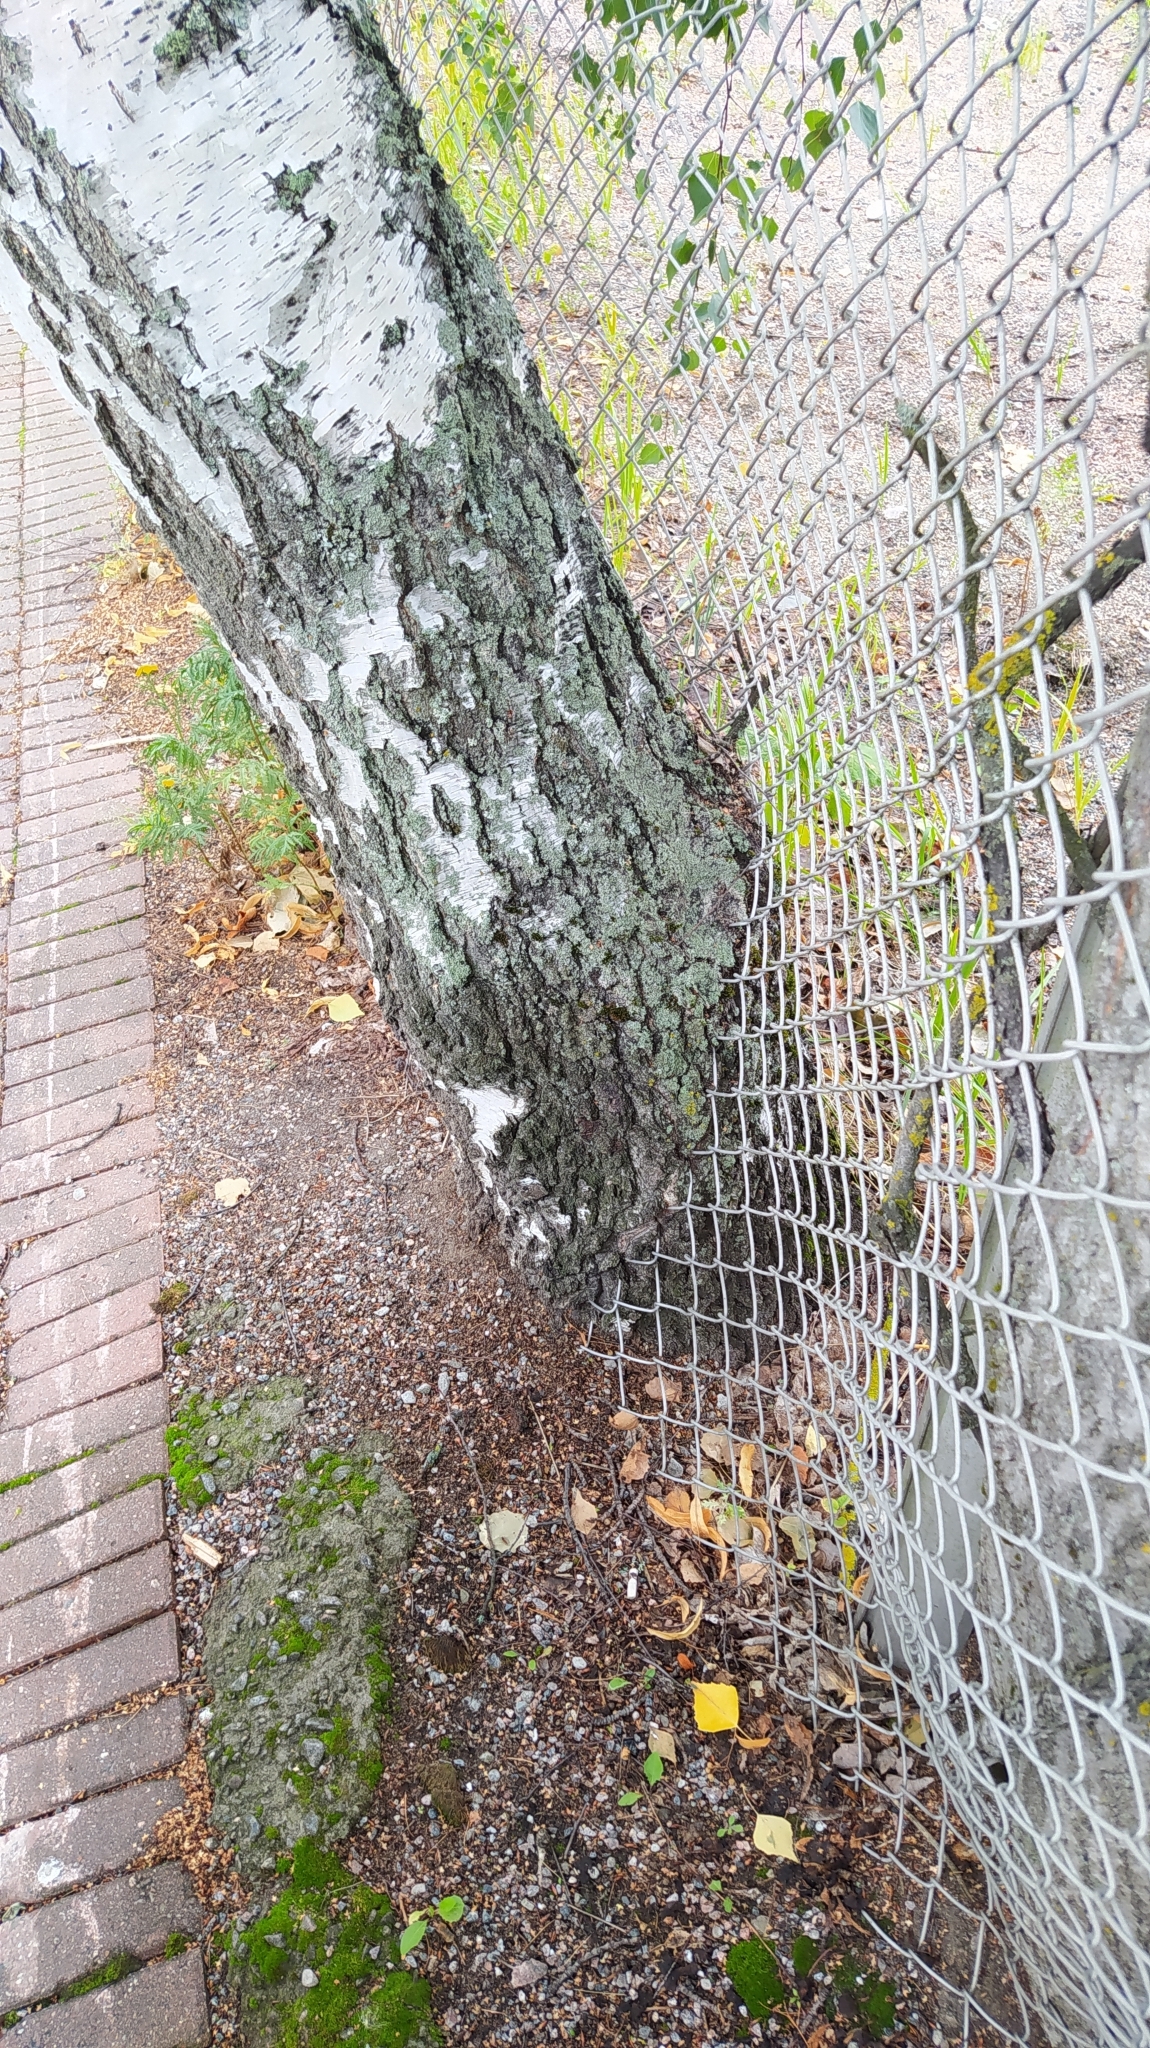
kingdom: Plantae
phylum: Tracheophyta
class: Magnoliopsida
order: Fagales
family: Betulaceae
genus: Betula
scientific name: Betula pendula
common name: Silver birch
